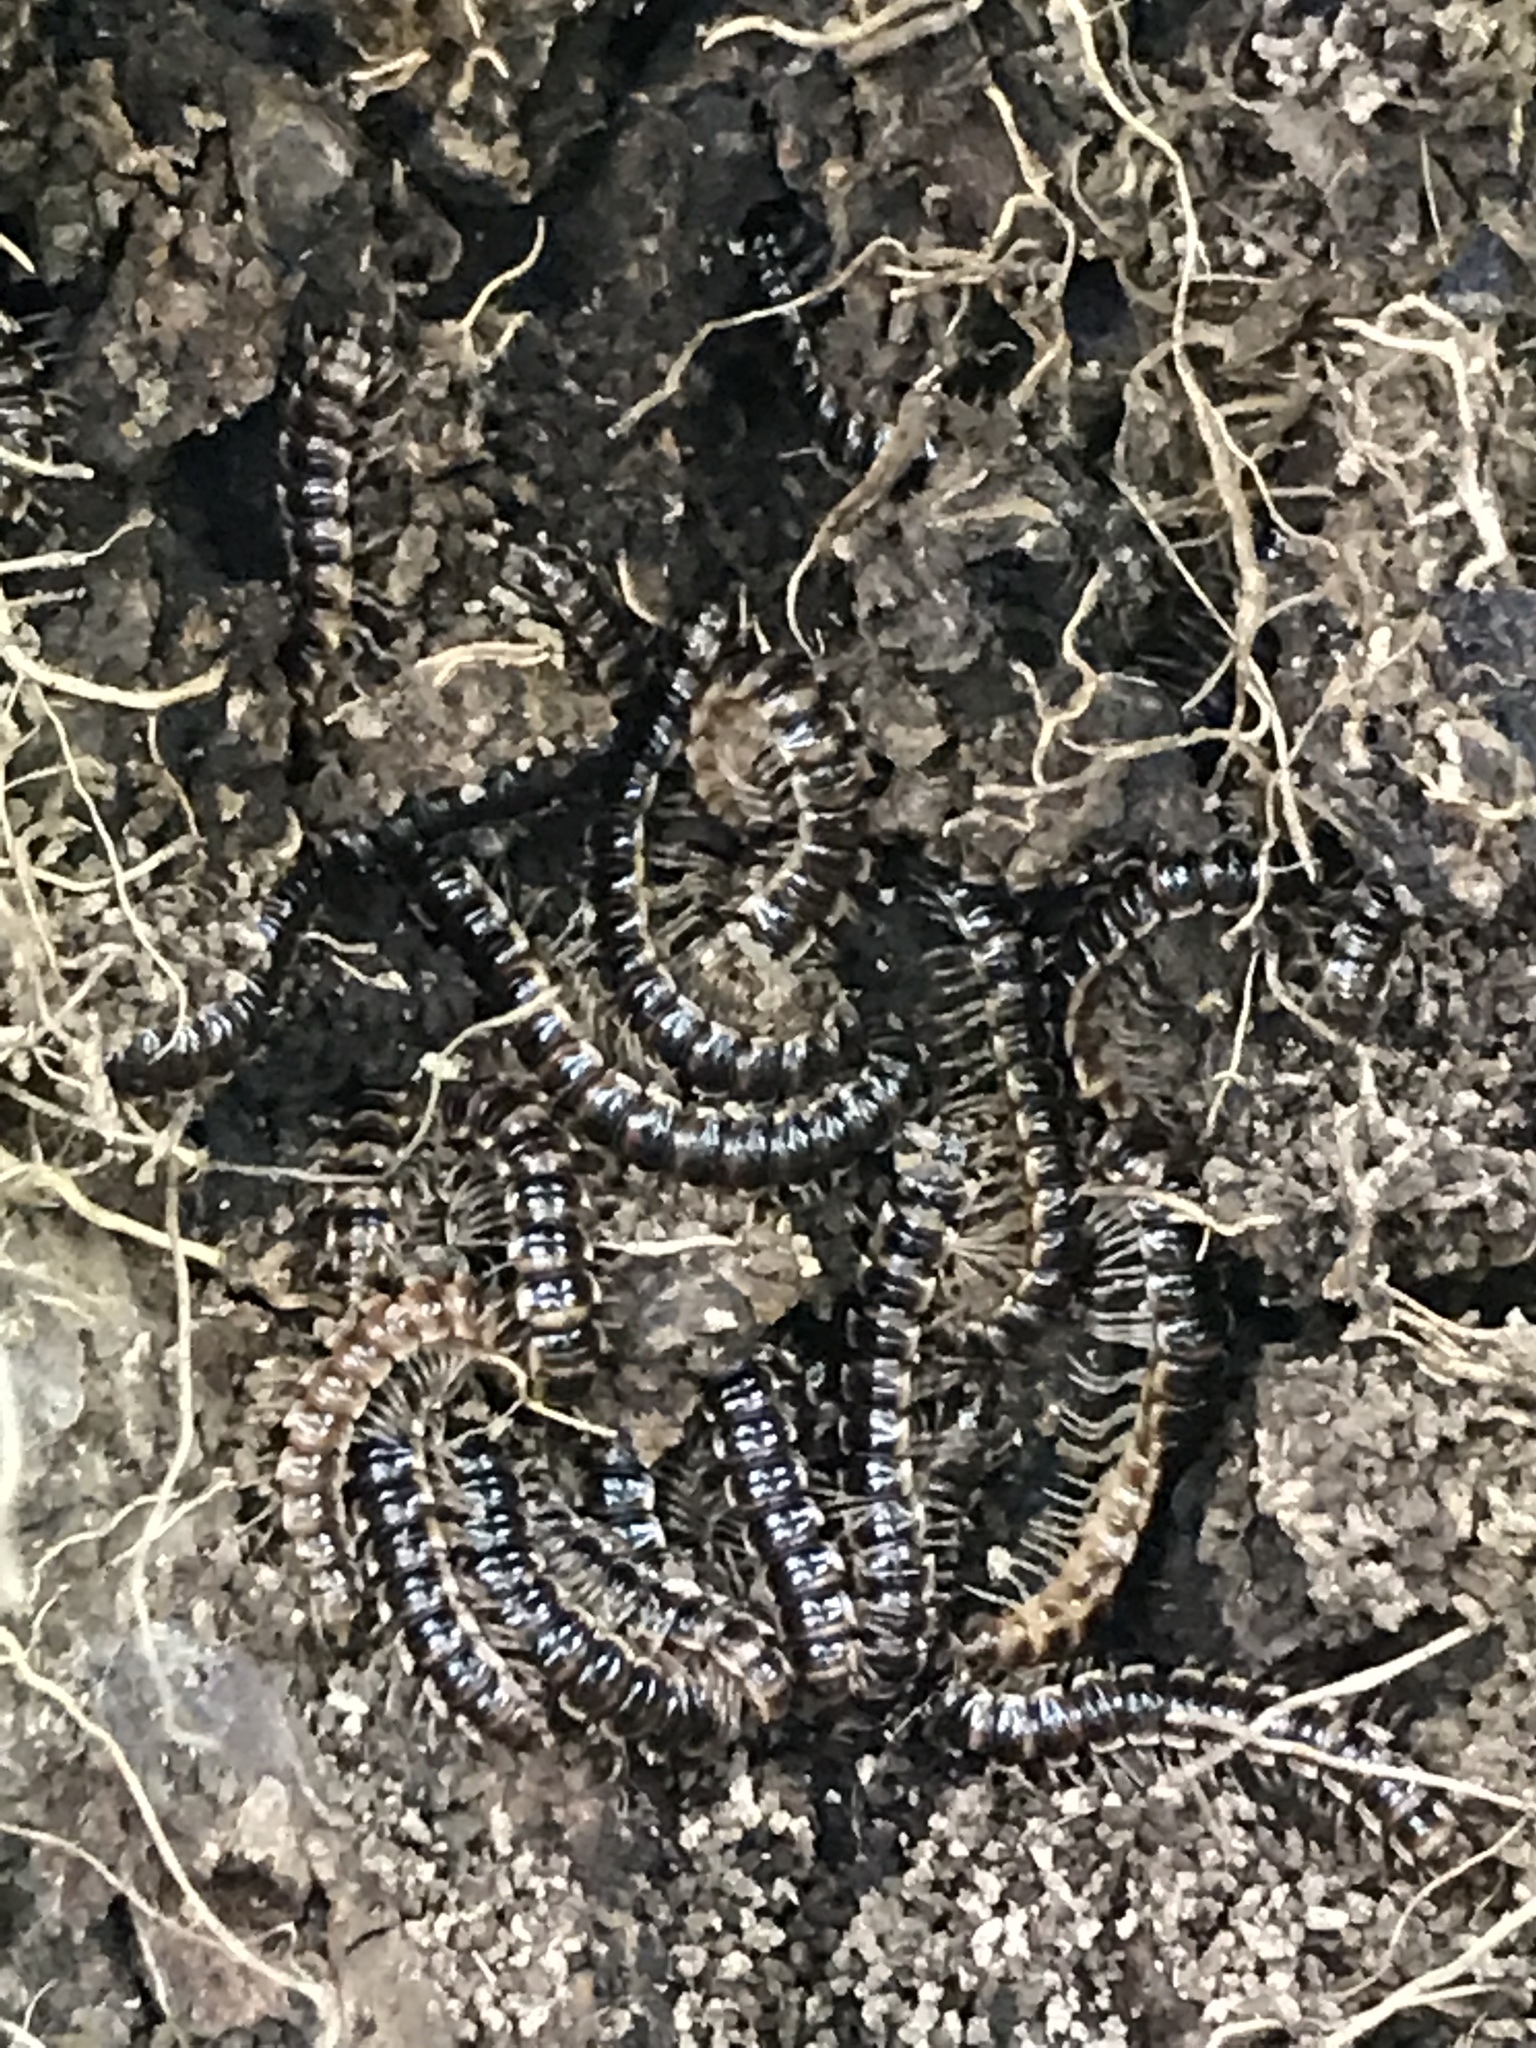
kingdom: Animalia
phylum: Arthropoda
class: Diplopoda
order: Polydesmida
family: Paradoxosomatidae
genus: Oxidus
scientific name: Oxidus gracilis
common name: Greenhouse millipede
